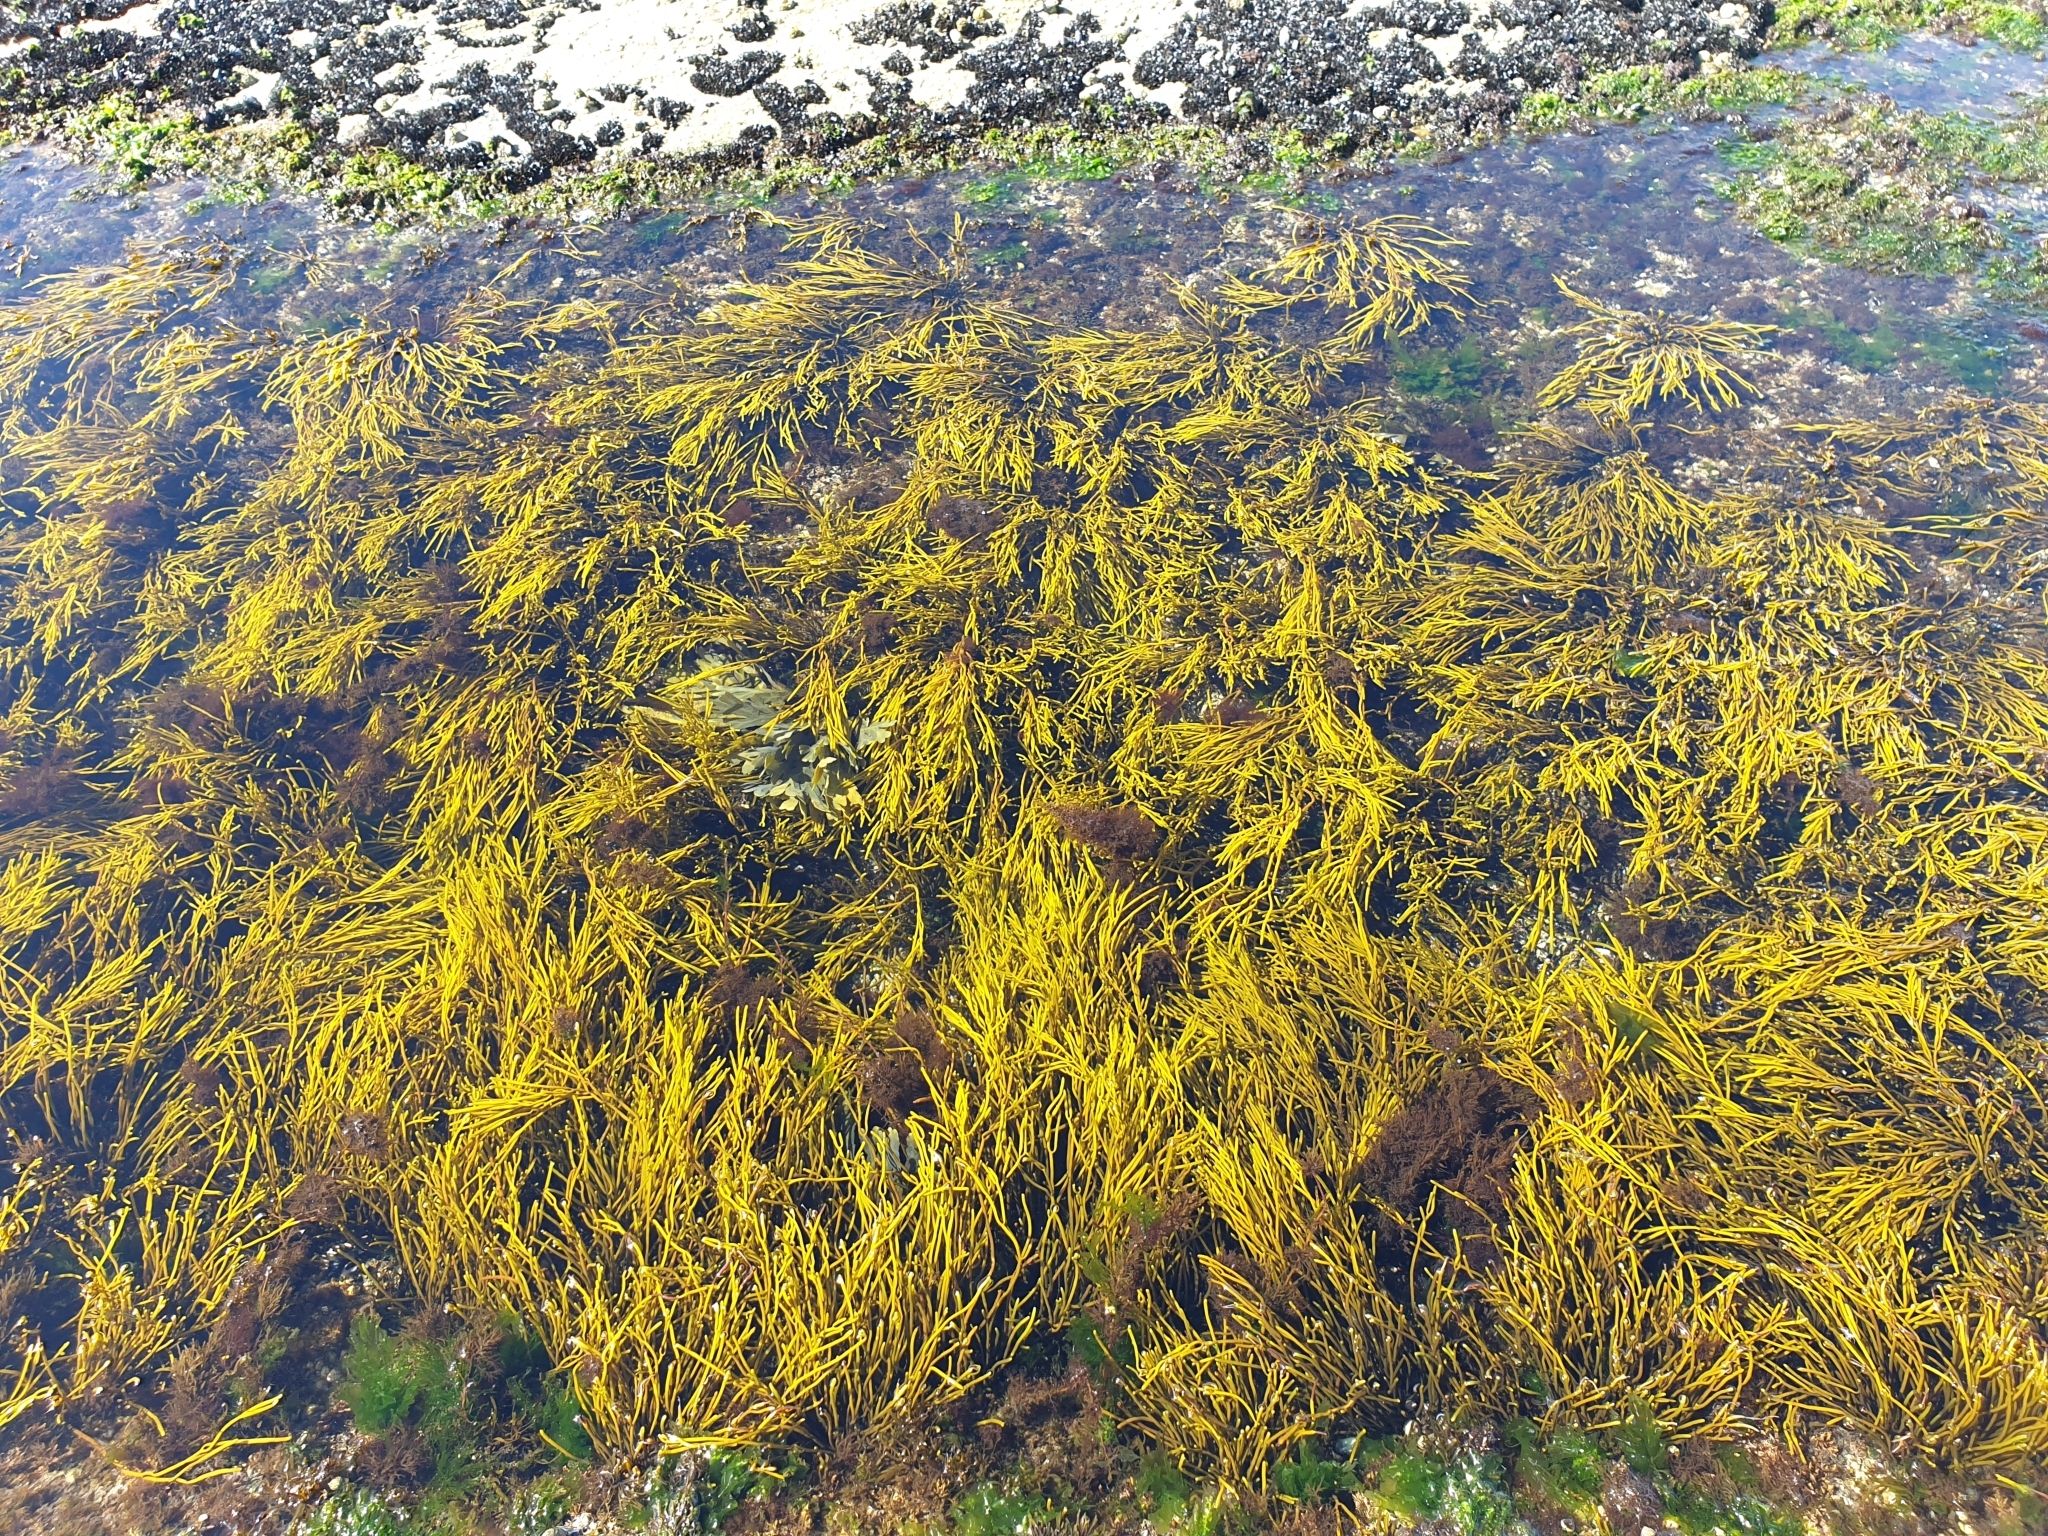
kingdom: Chromista
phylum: Ochrophyta
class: Phaeophyceae
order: Fucales
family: Sargassaceae
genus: Bifurcaria
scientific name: Bifurcaria bifurcata
